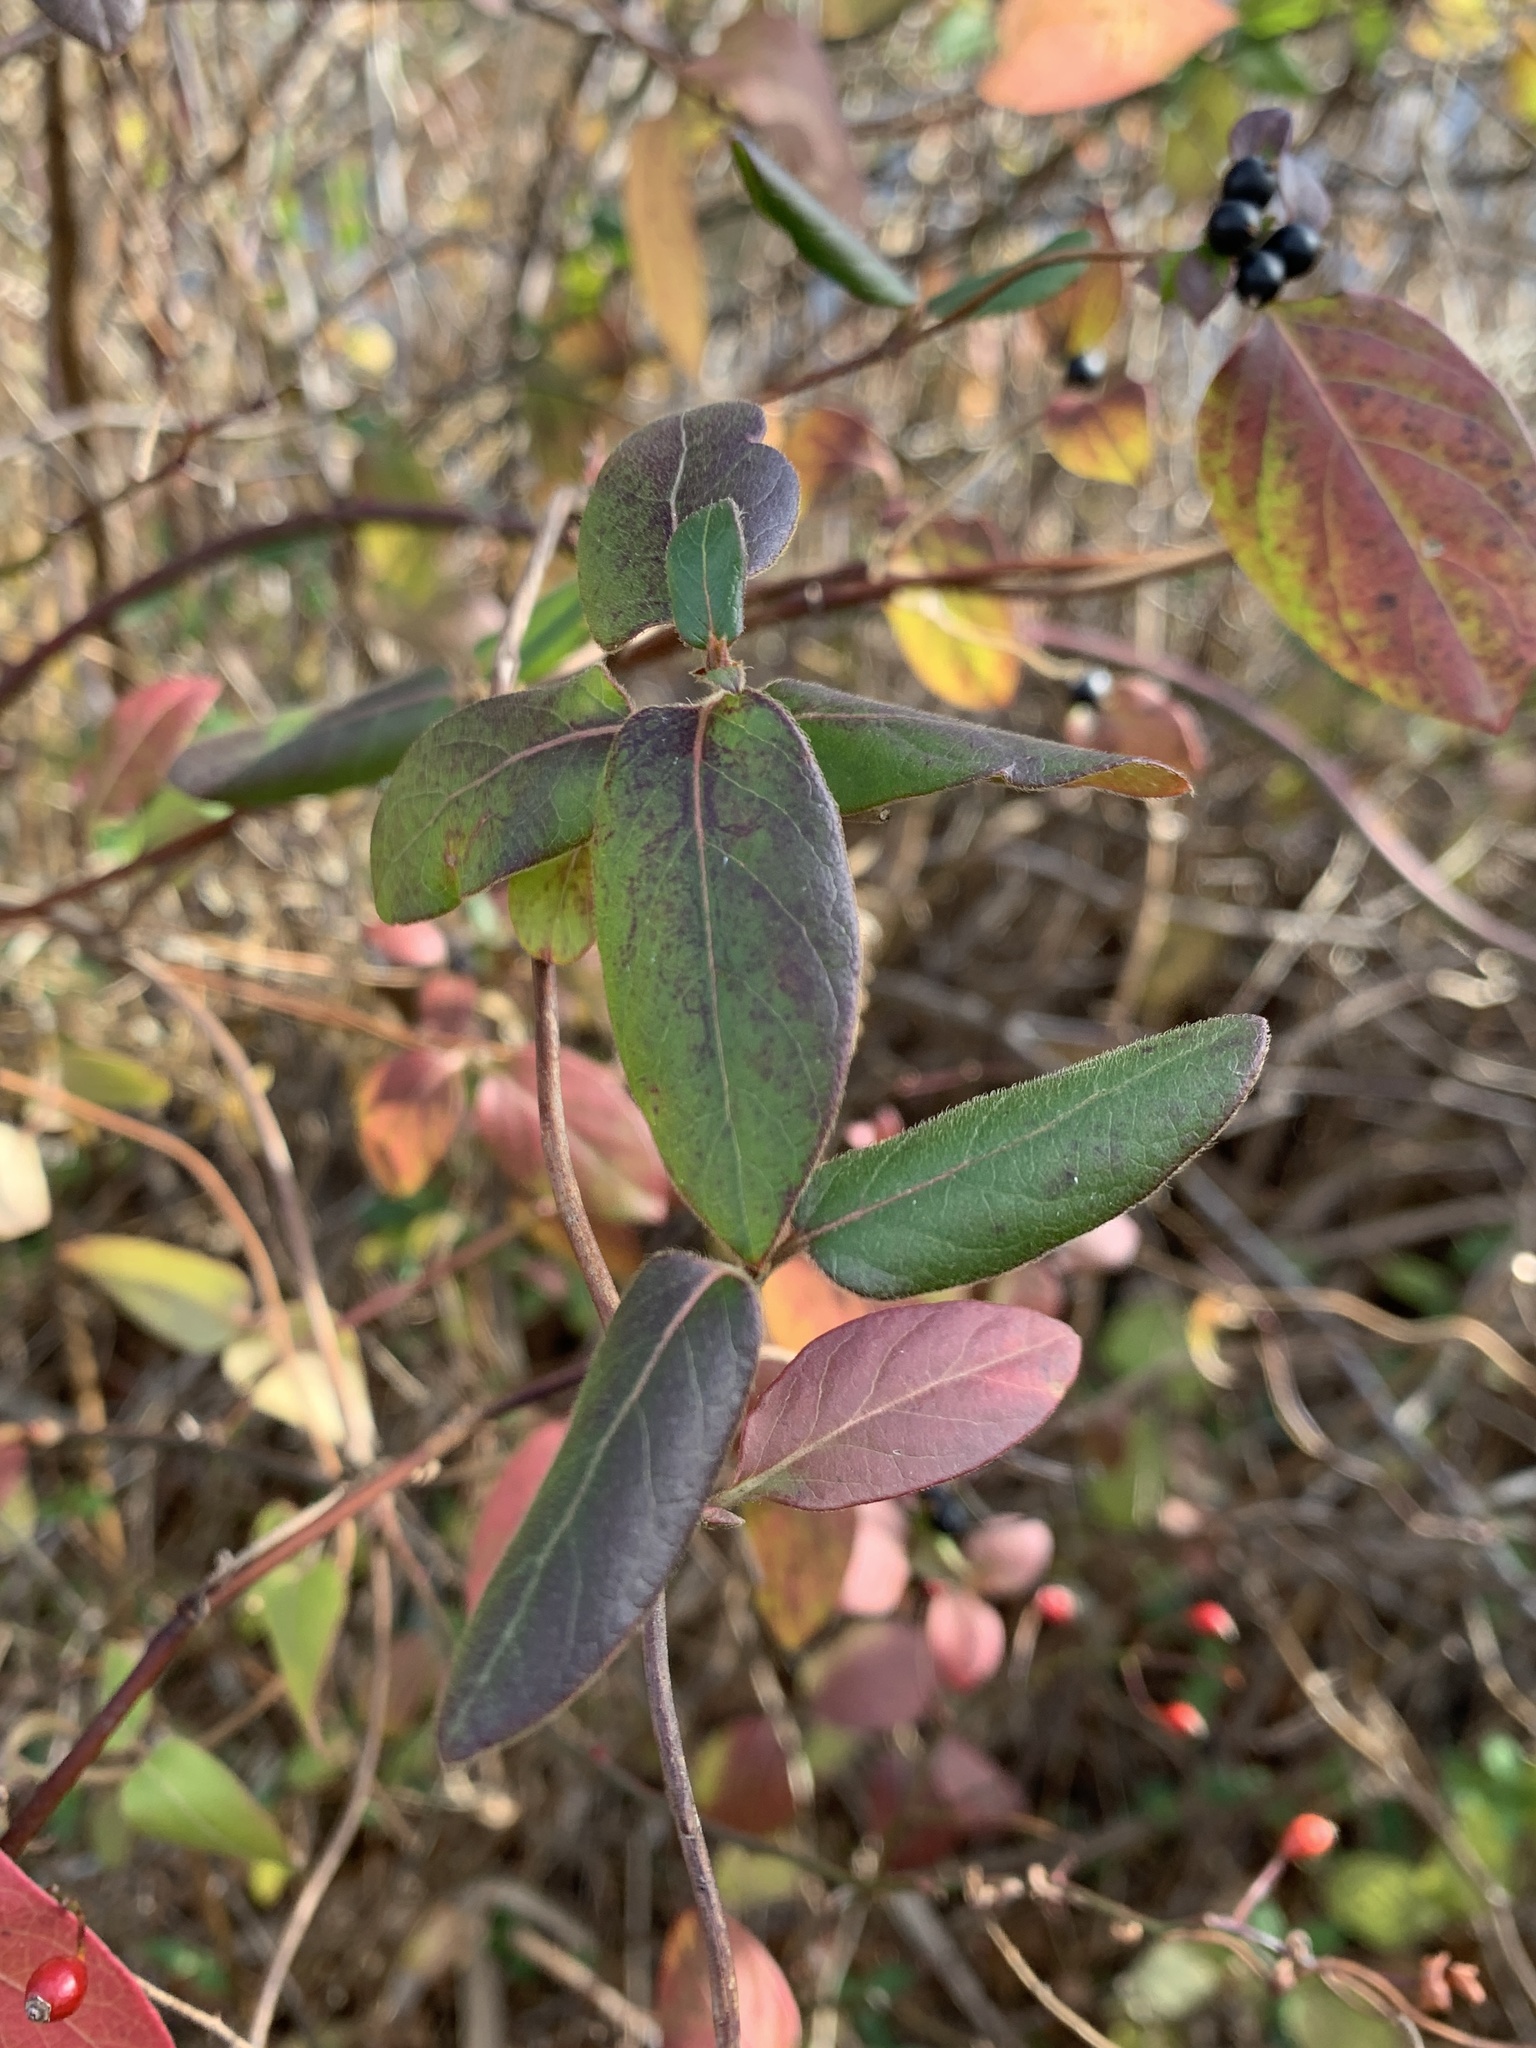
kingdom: Plantae
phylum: Tracheophyta
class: Magnoliopsida
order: Dipsacales
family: Caprifoliaceae
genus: Lonicera
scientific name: Lonicera japonica
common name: Japanese honeysuckle
